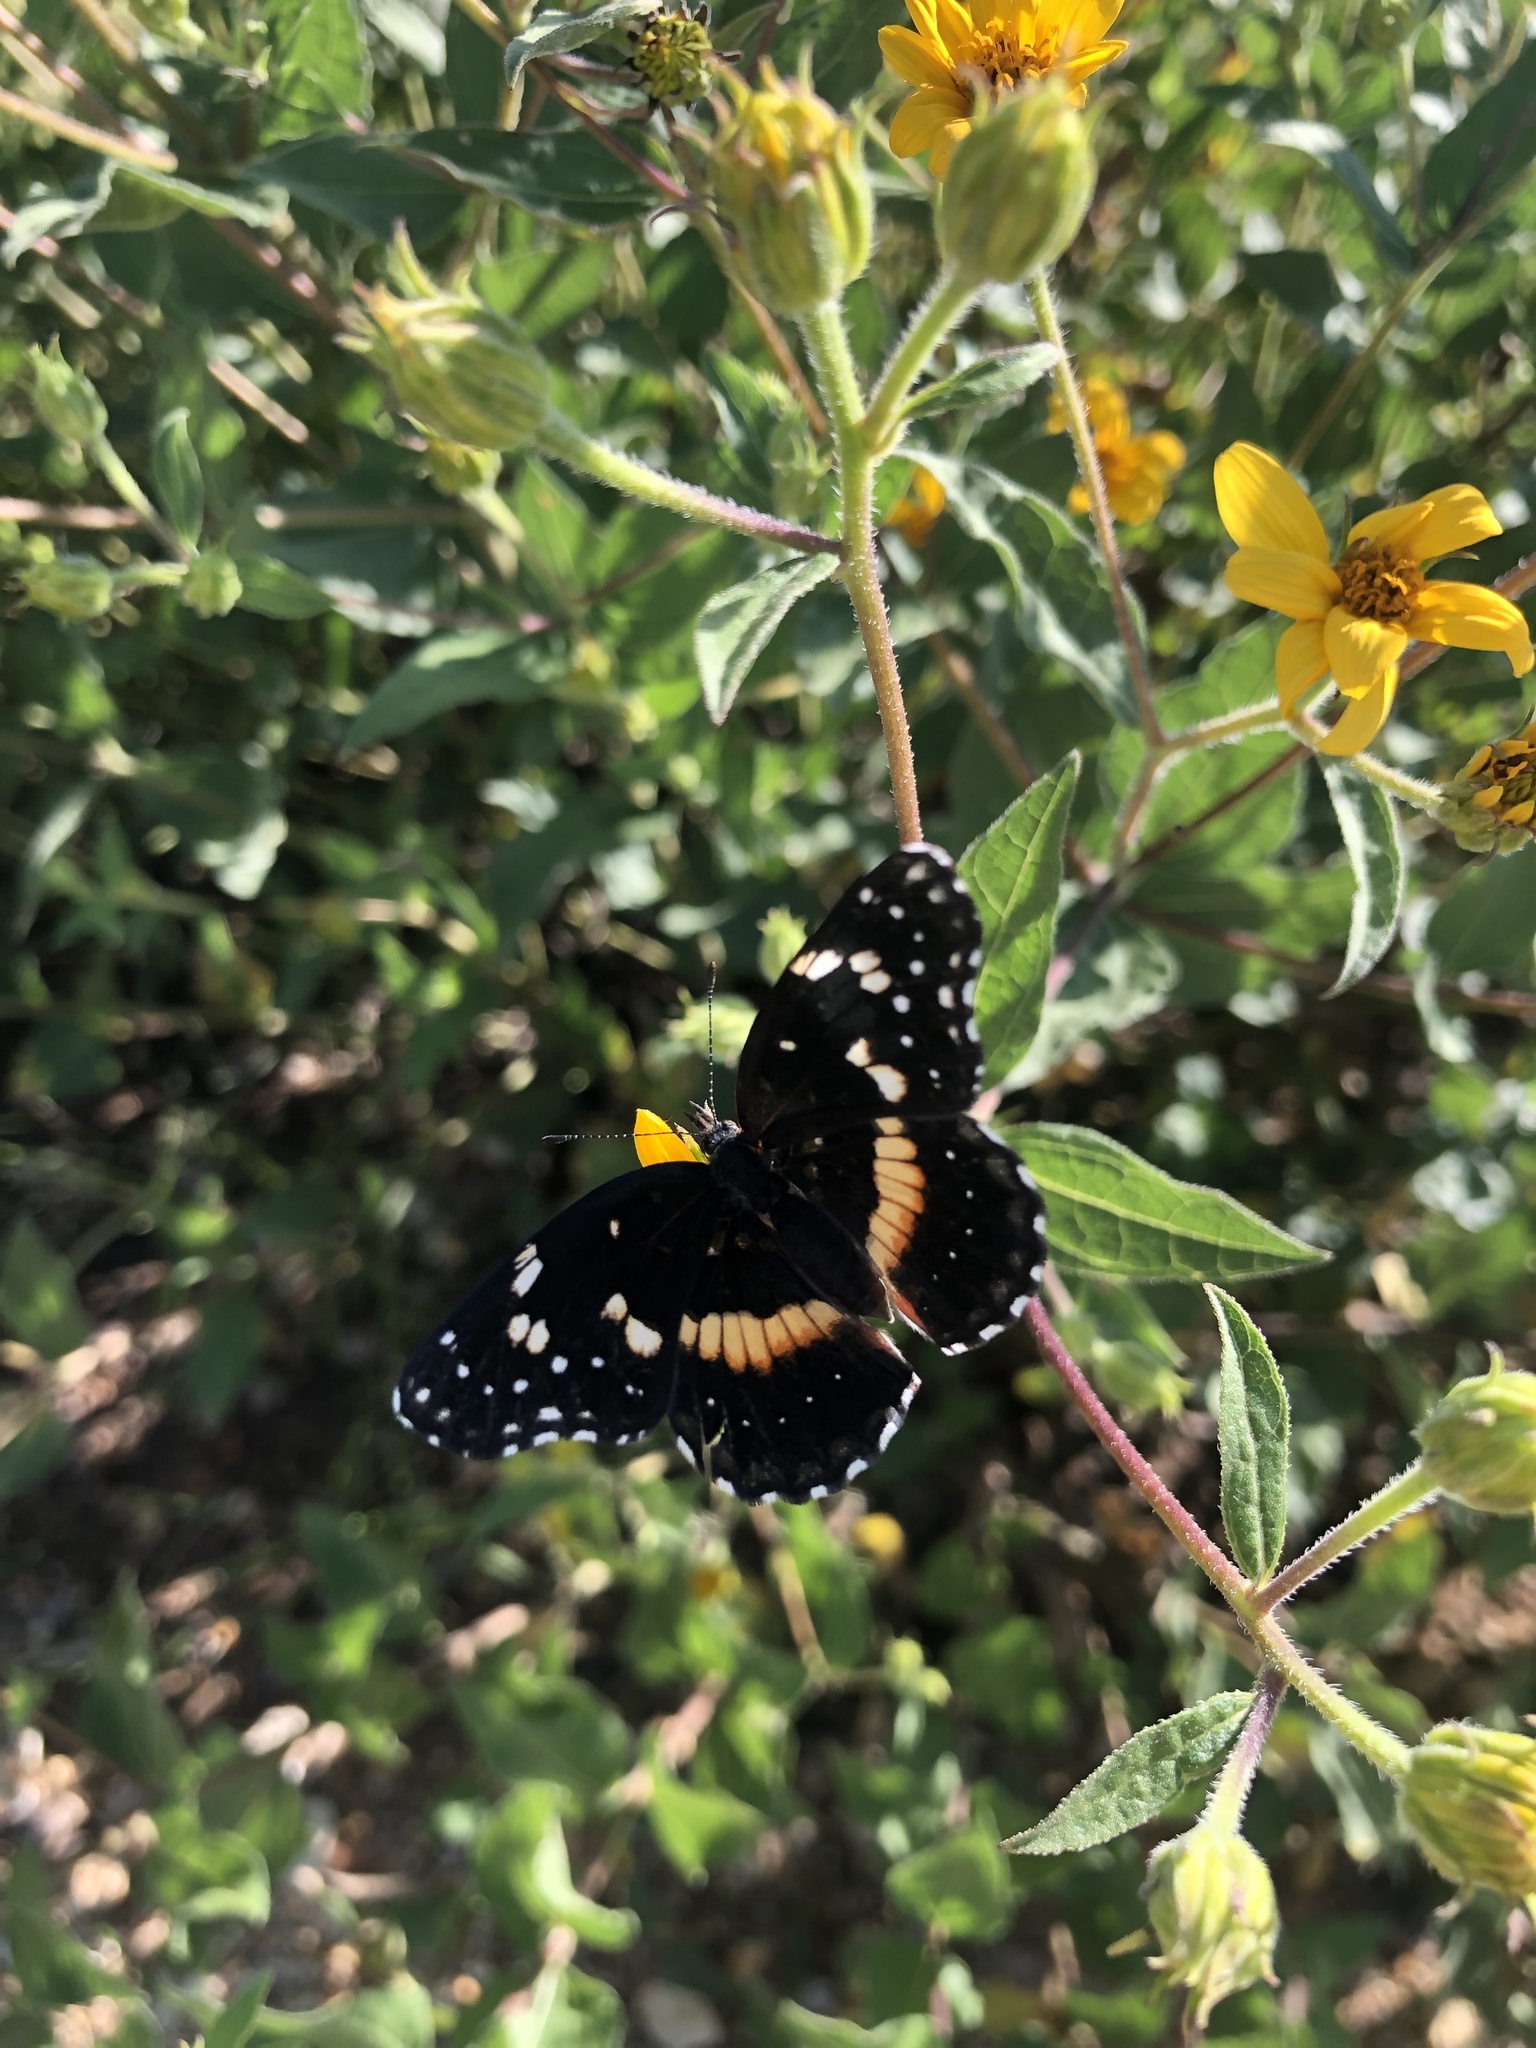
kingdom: Animalia
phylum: Arthropoda
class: Insecta
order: Lepidoptera
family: Nymphalidae
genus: Chlosyne
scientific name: Chlosyne lacinia
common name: Bordered patch
